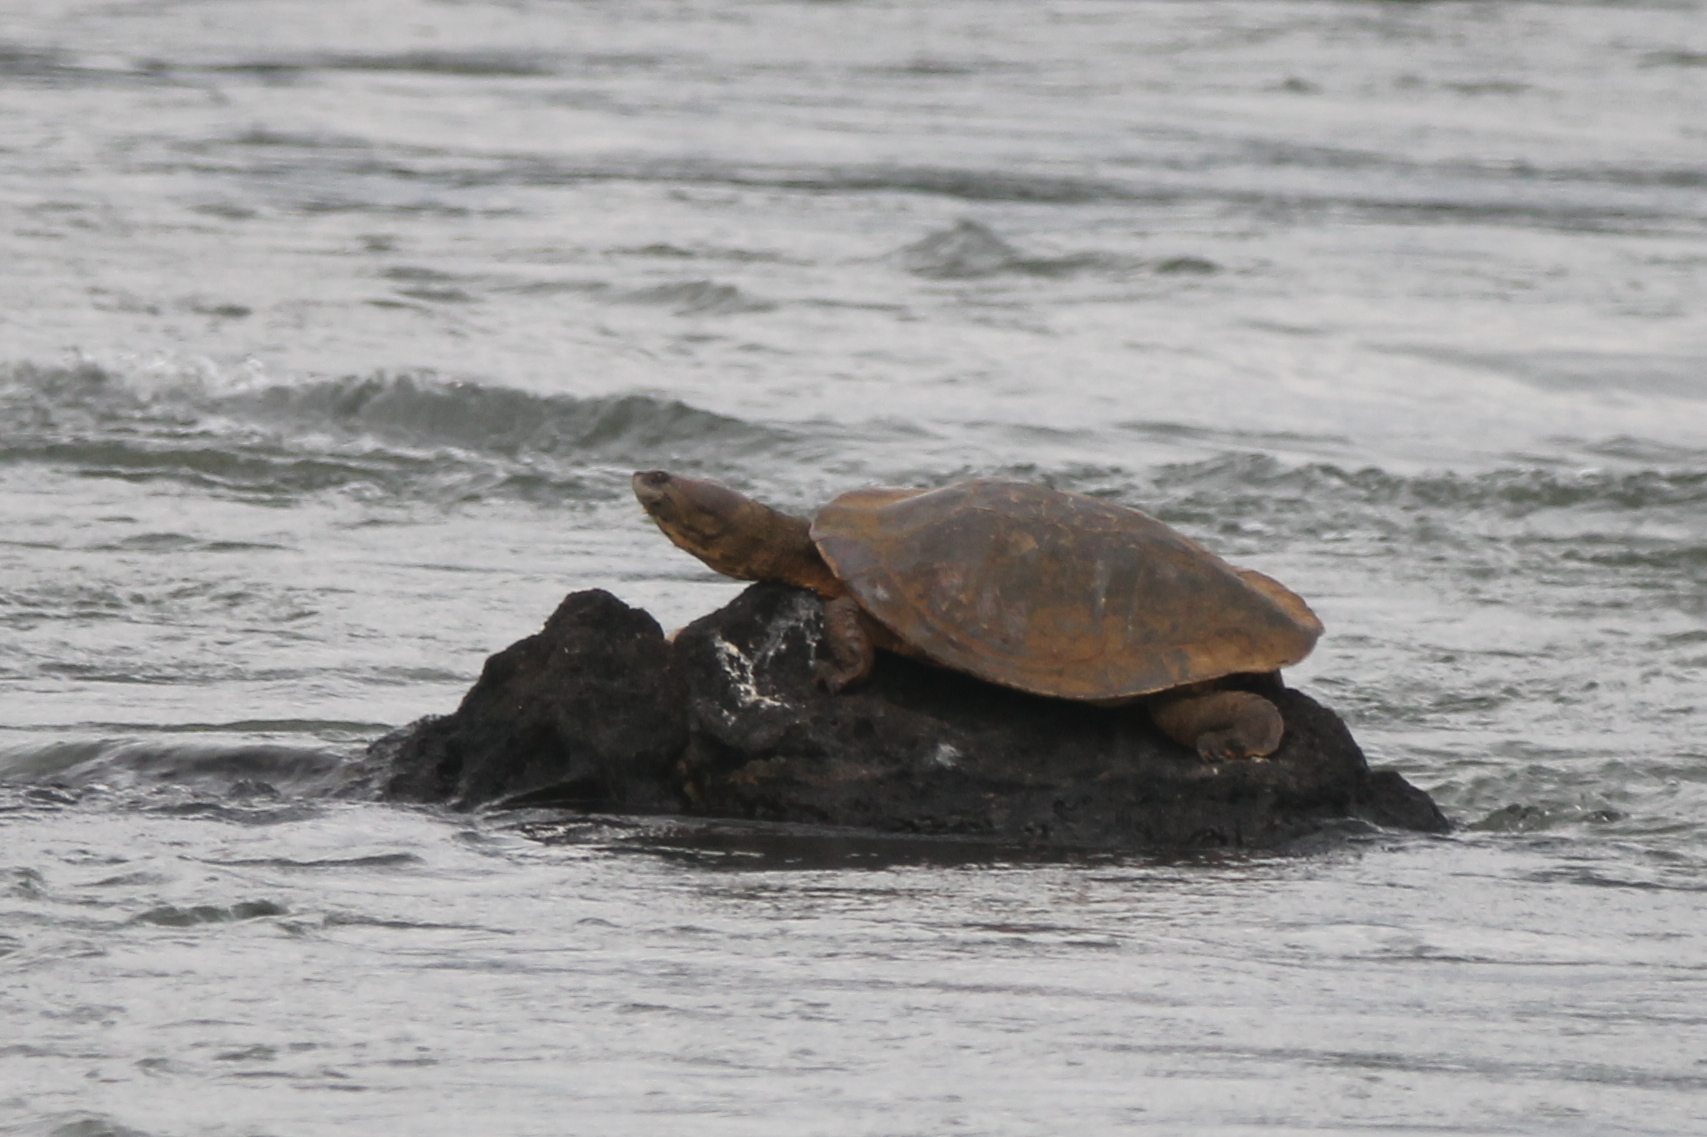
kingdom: Animalia
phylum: Chordata
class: Testudines
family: Chelidae
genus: Phrynops
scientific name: Phrynops williamsi
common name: Williams side-necked turtle
